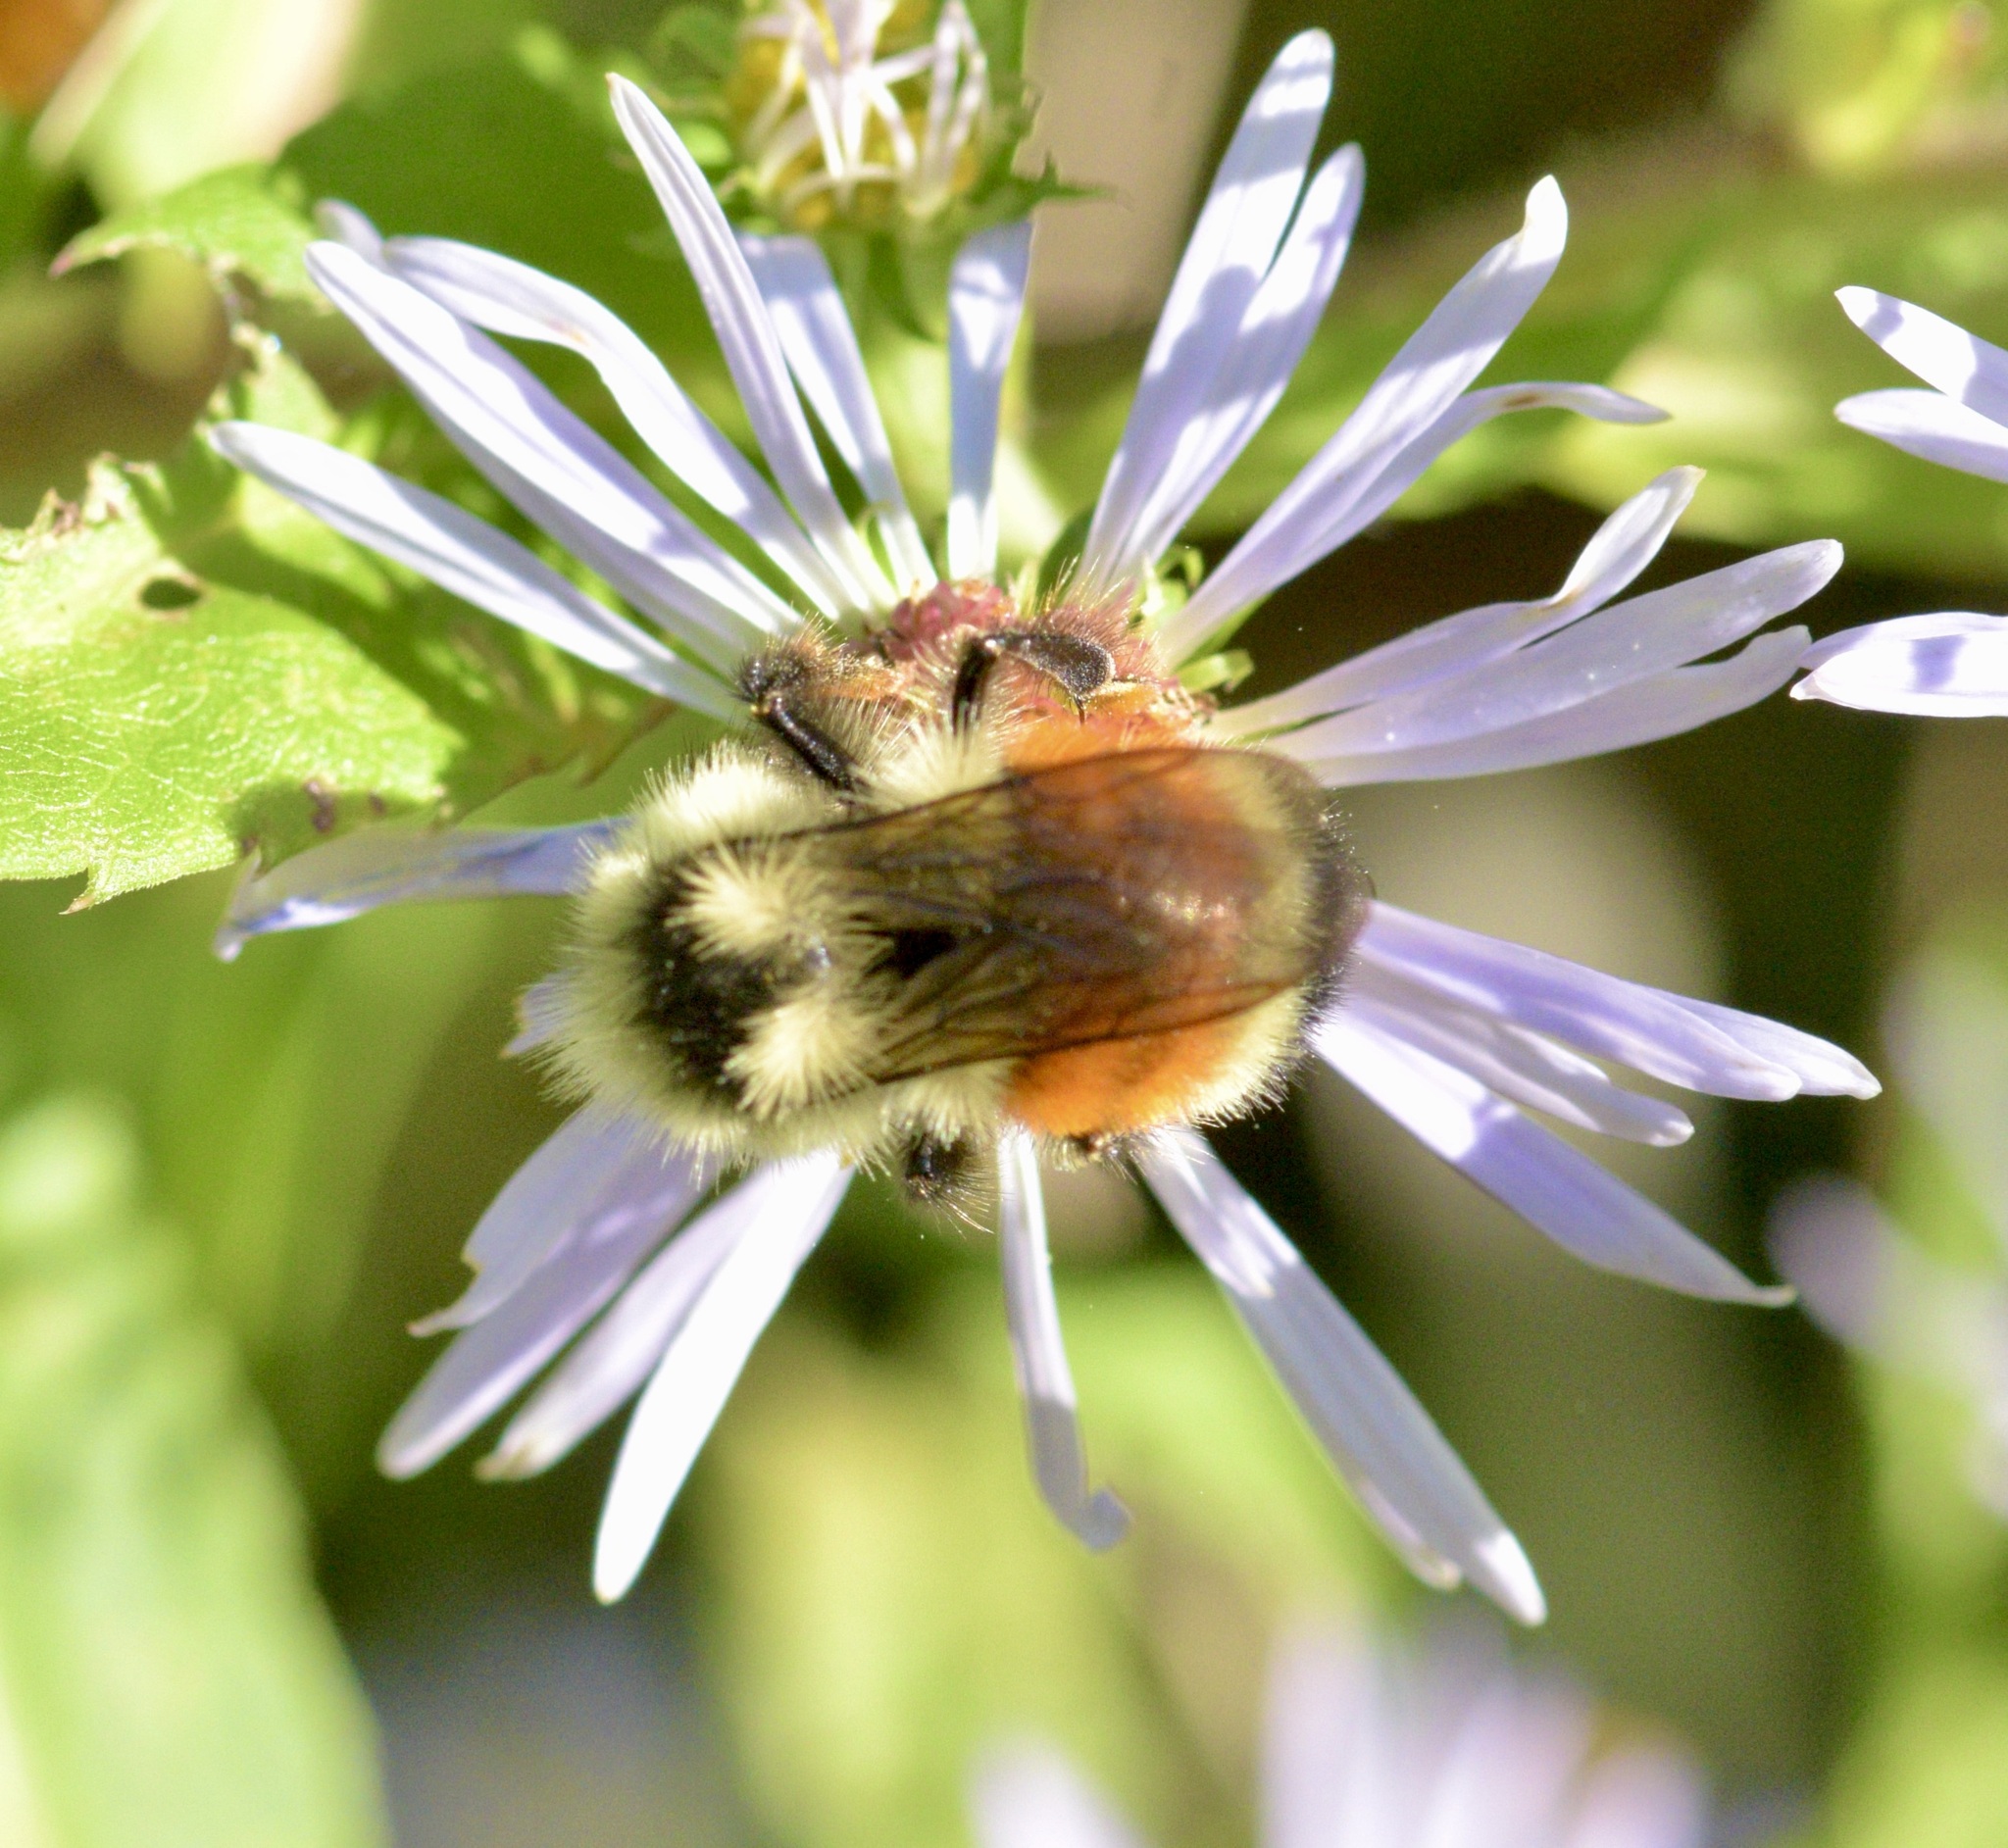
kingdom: Animalia
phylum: Arthropoda
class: Insecta
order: Hymenoptera
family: Apidae
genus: Bombus
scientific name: Bombus ternarius
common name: Tri-colored bumble bee
